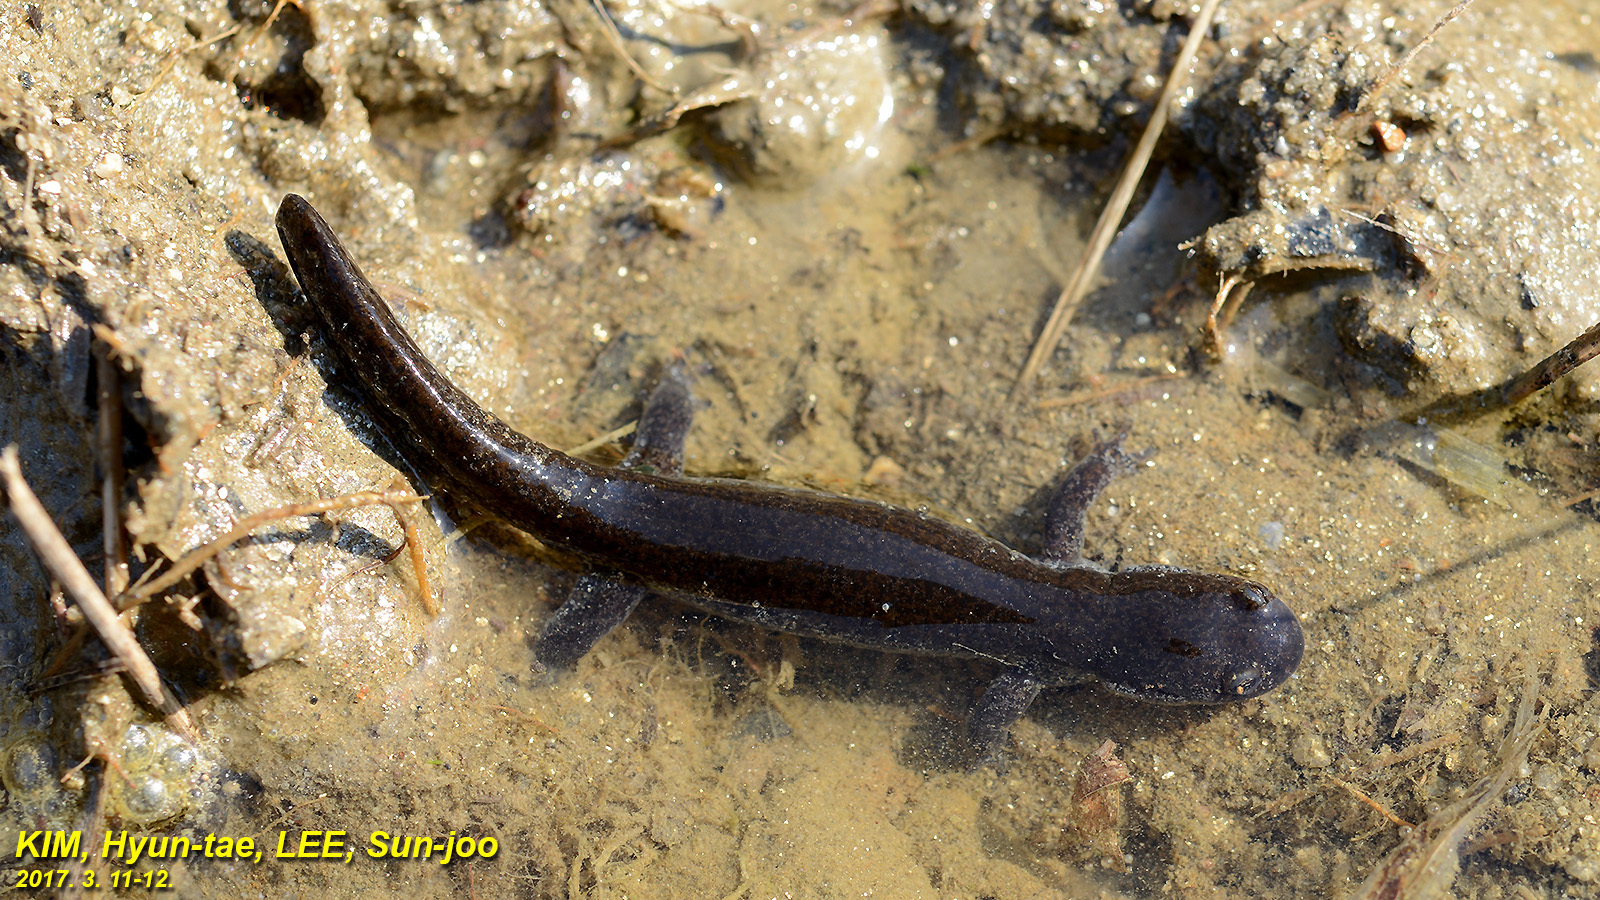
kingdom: Animalia
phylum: Chordata
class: Amphibia
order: Caudata
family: Hynobiidae
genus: Hynobius
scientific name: Hynobius unisacculus
